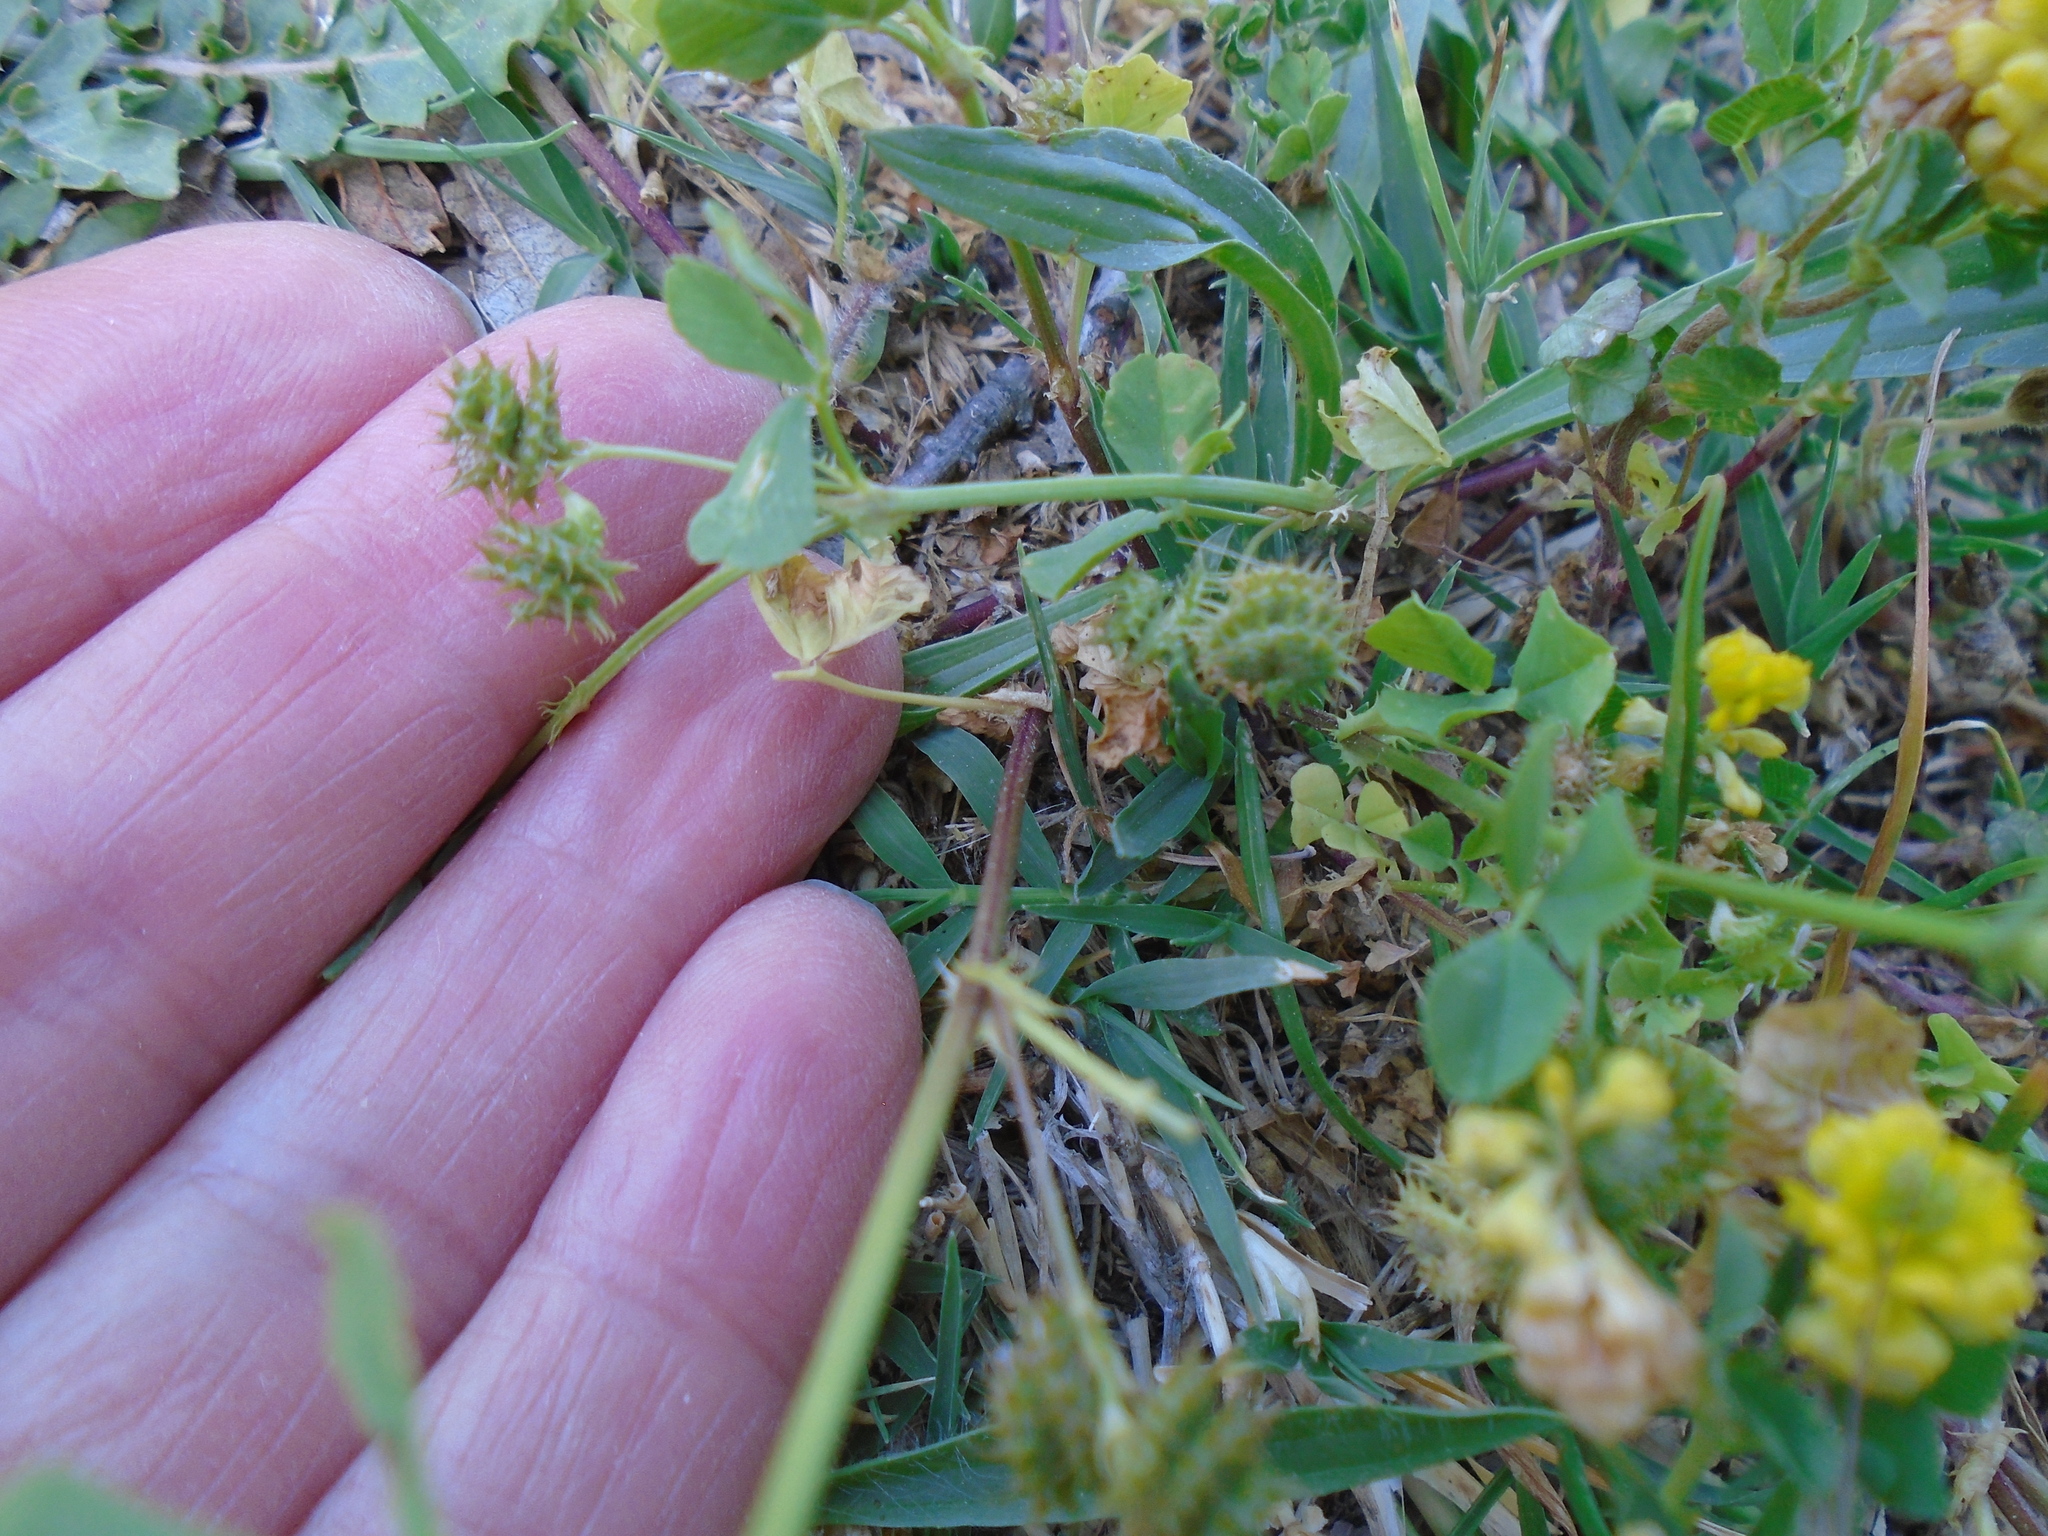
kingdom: Plantae
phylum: Tracheophyta
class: Magnoliopsida
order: Fabales
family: Fabaceae
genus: Medicago
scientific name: Medicago polymorpha
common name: Burclover
